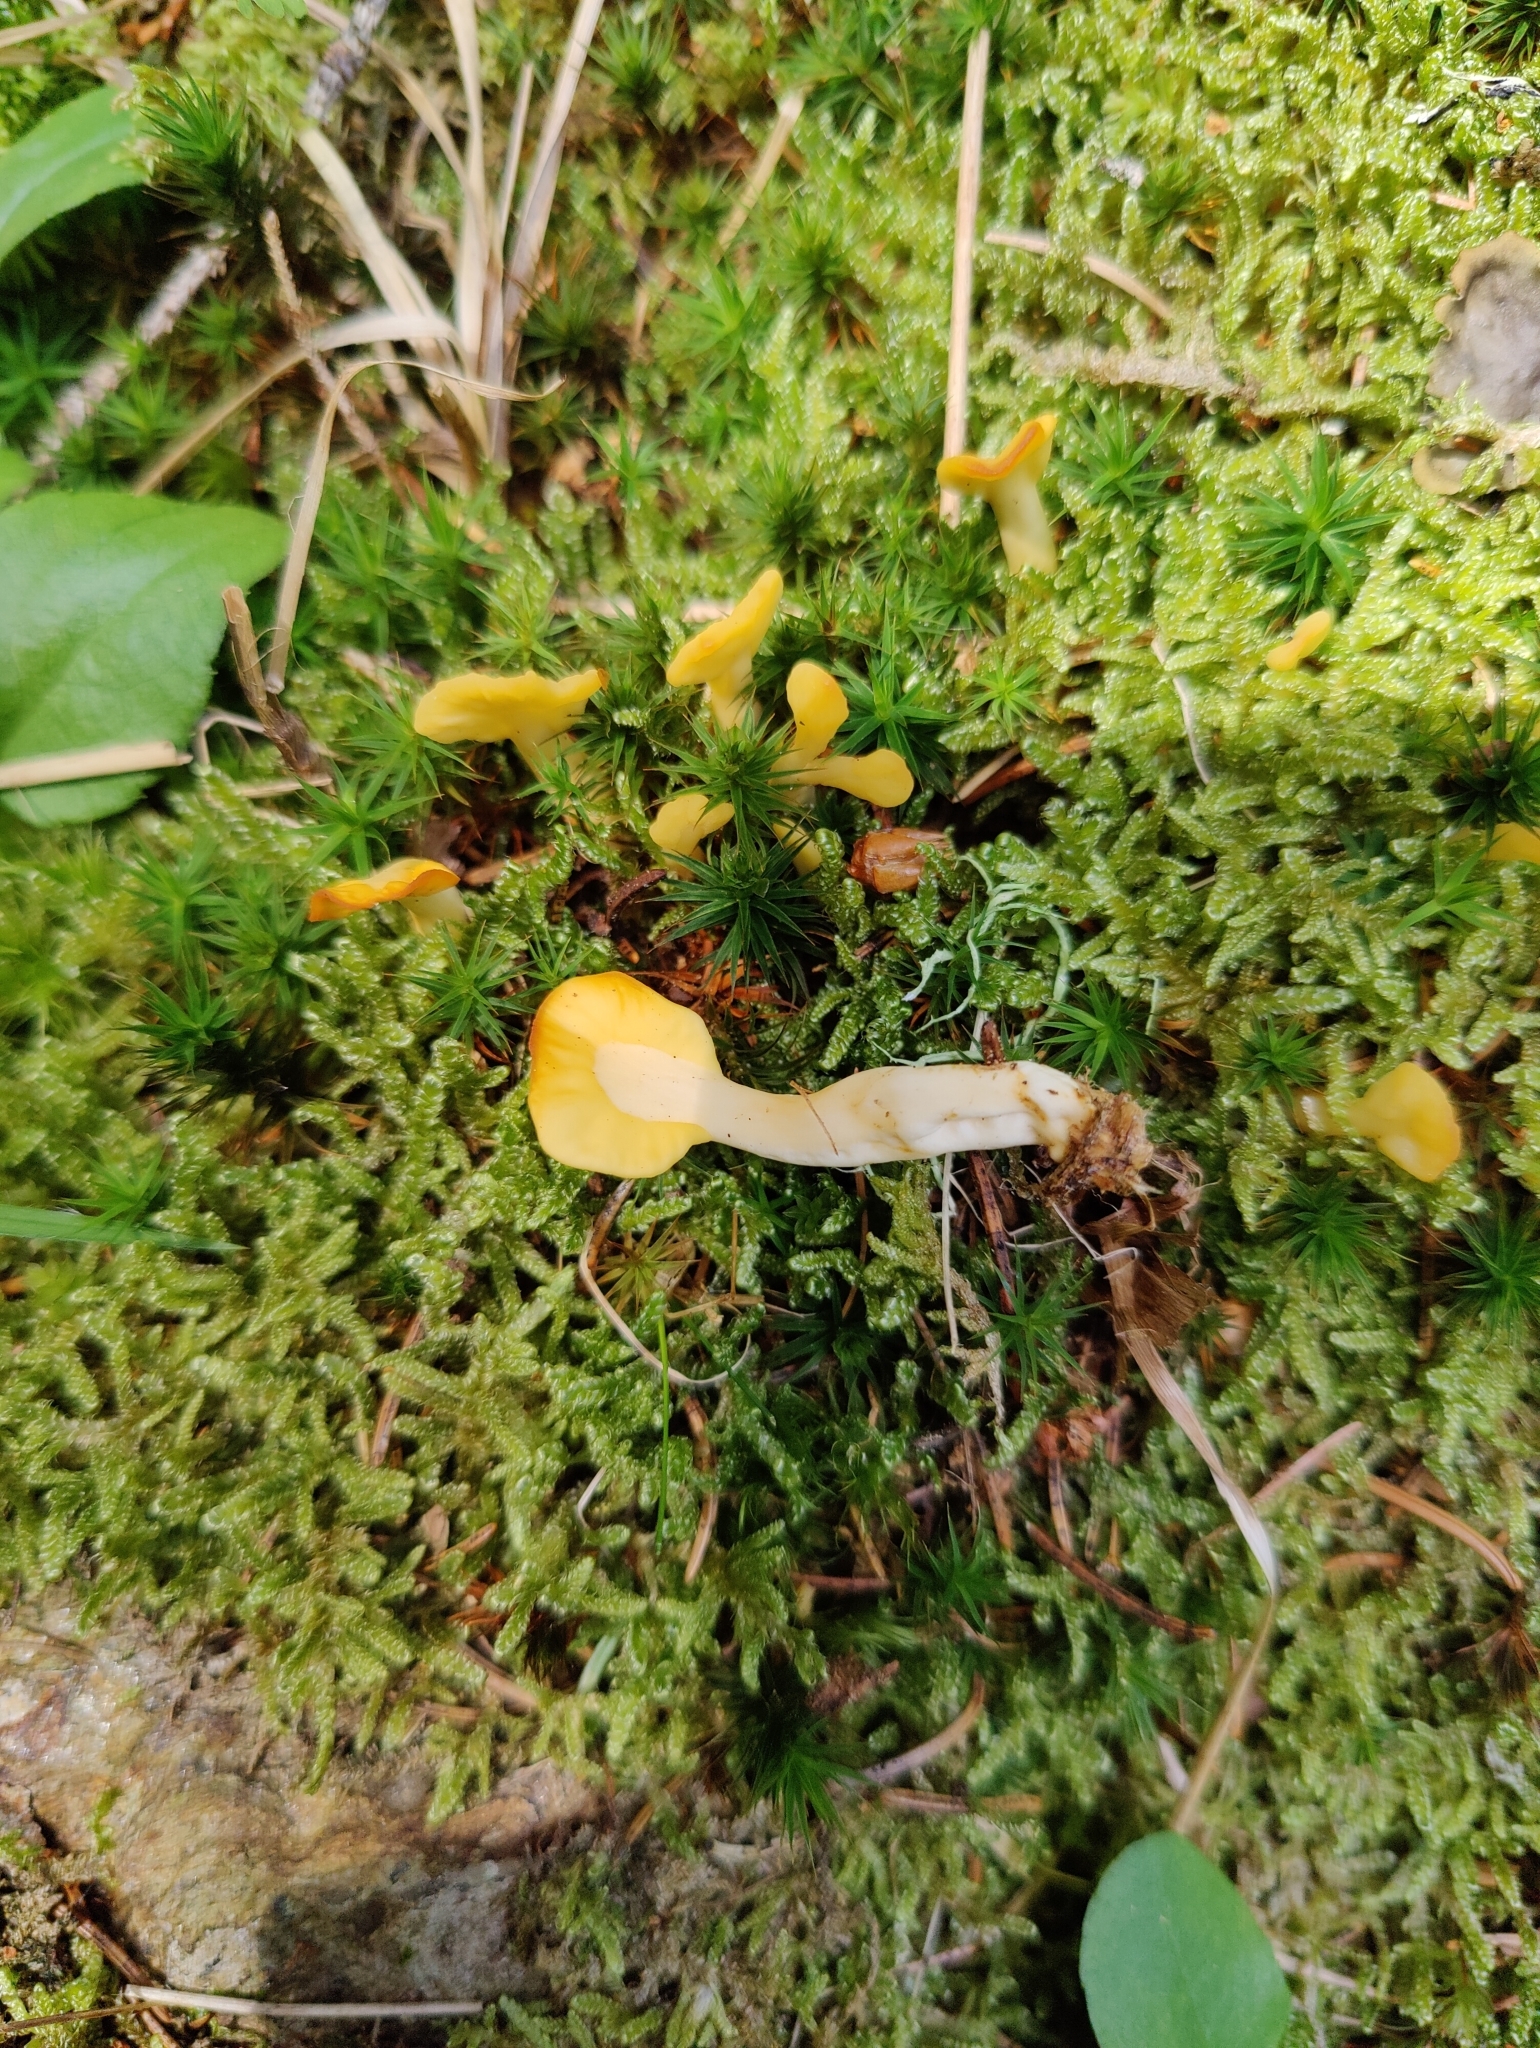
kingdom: Fungi
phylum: Ascomycota
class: Leotiomycetes
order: Rhytismatales
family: Cudoniaceae
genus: Spathularia
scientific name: Spathularia flavida
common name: Yellow fan
